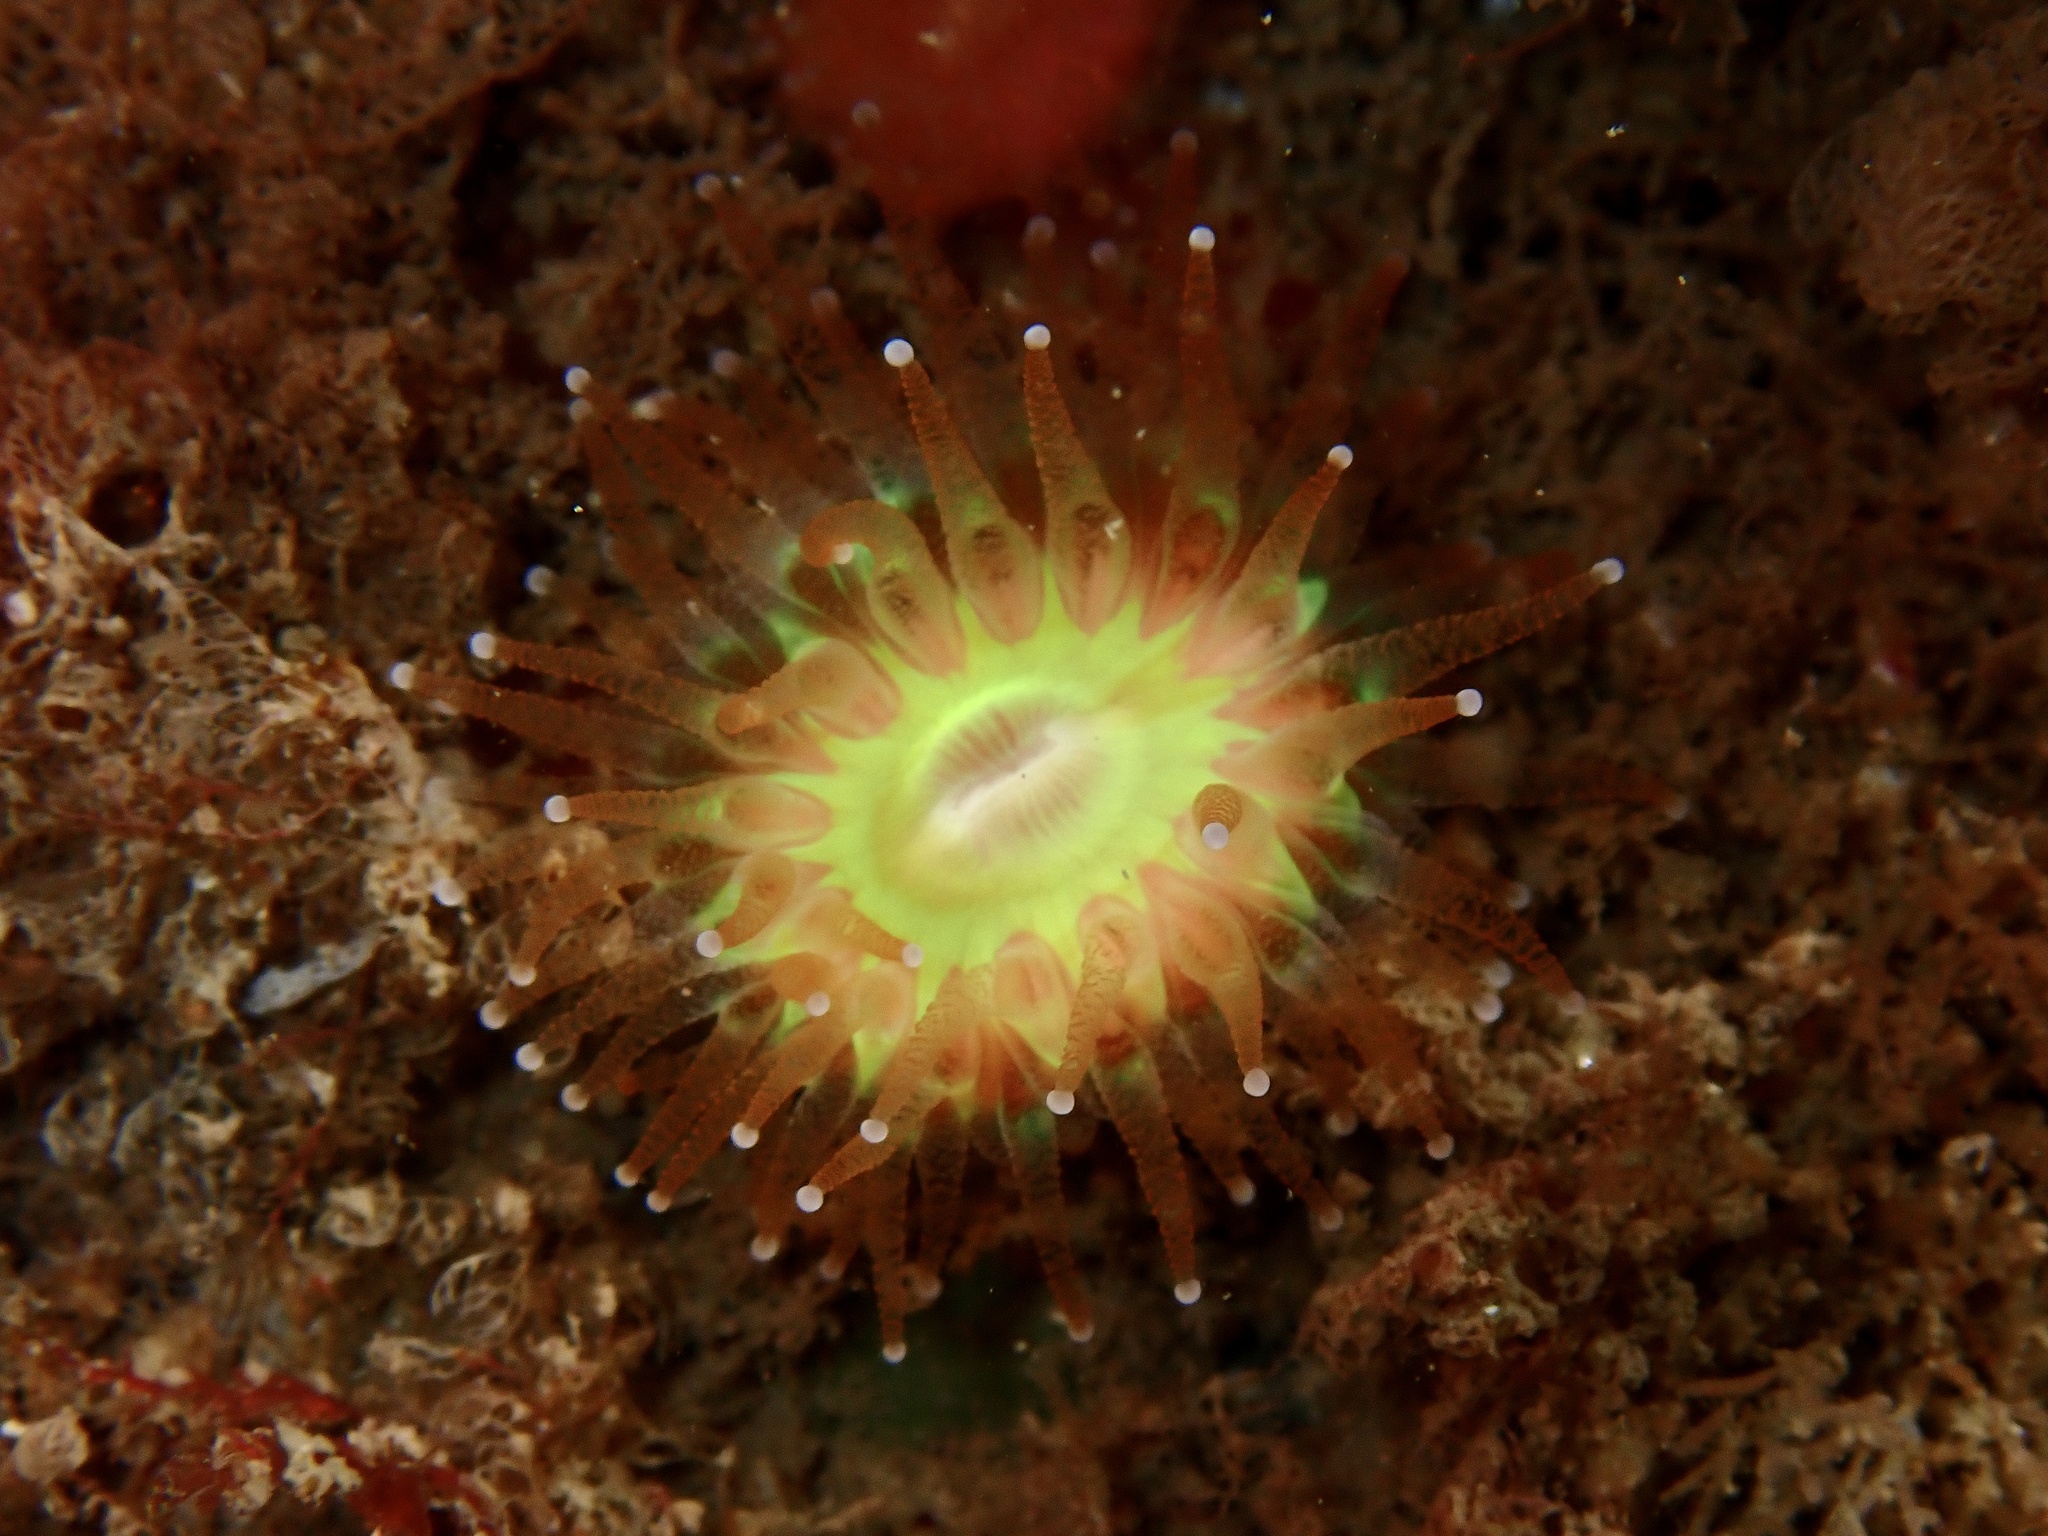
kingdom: Animalia
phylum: Cnidaria
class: Anthozoa
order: Scleractinia
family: Caryophylliidae
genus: Caryophyllia
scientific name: Caryophyllia smithii
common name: Devonshire cup coral
